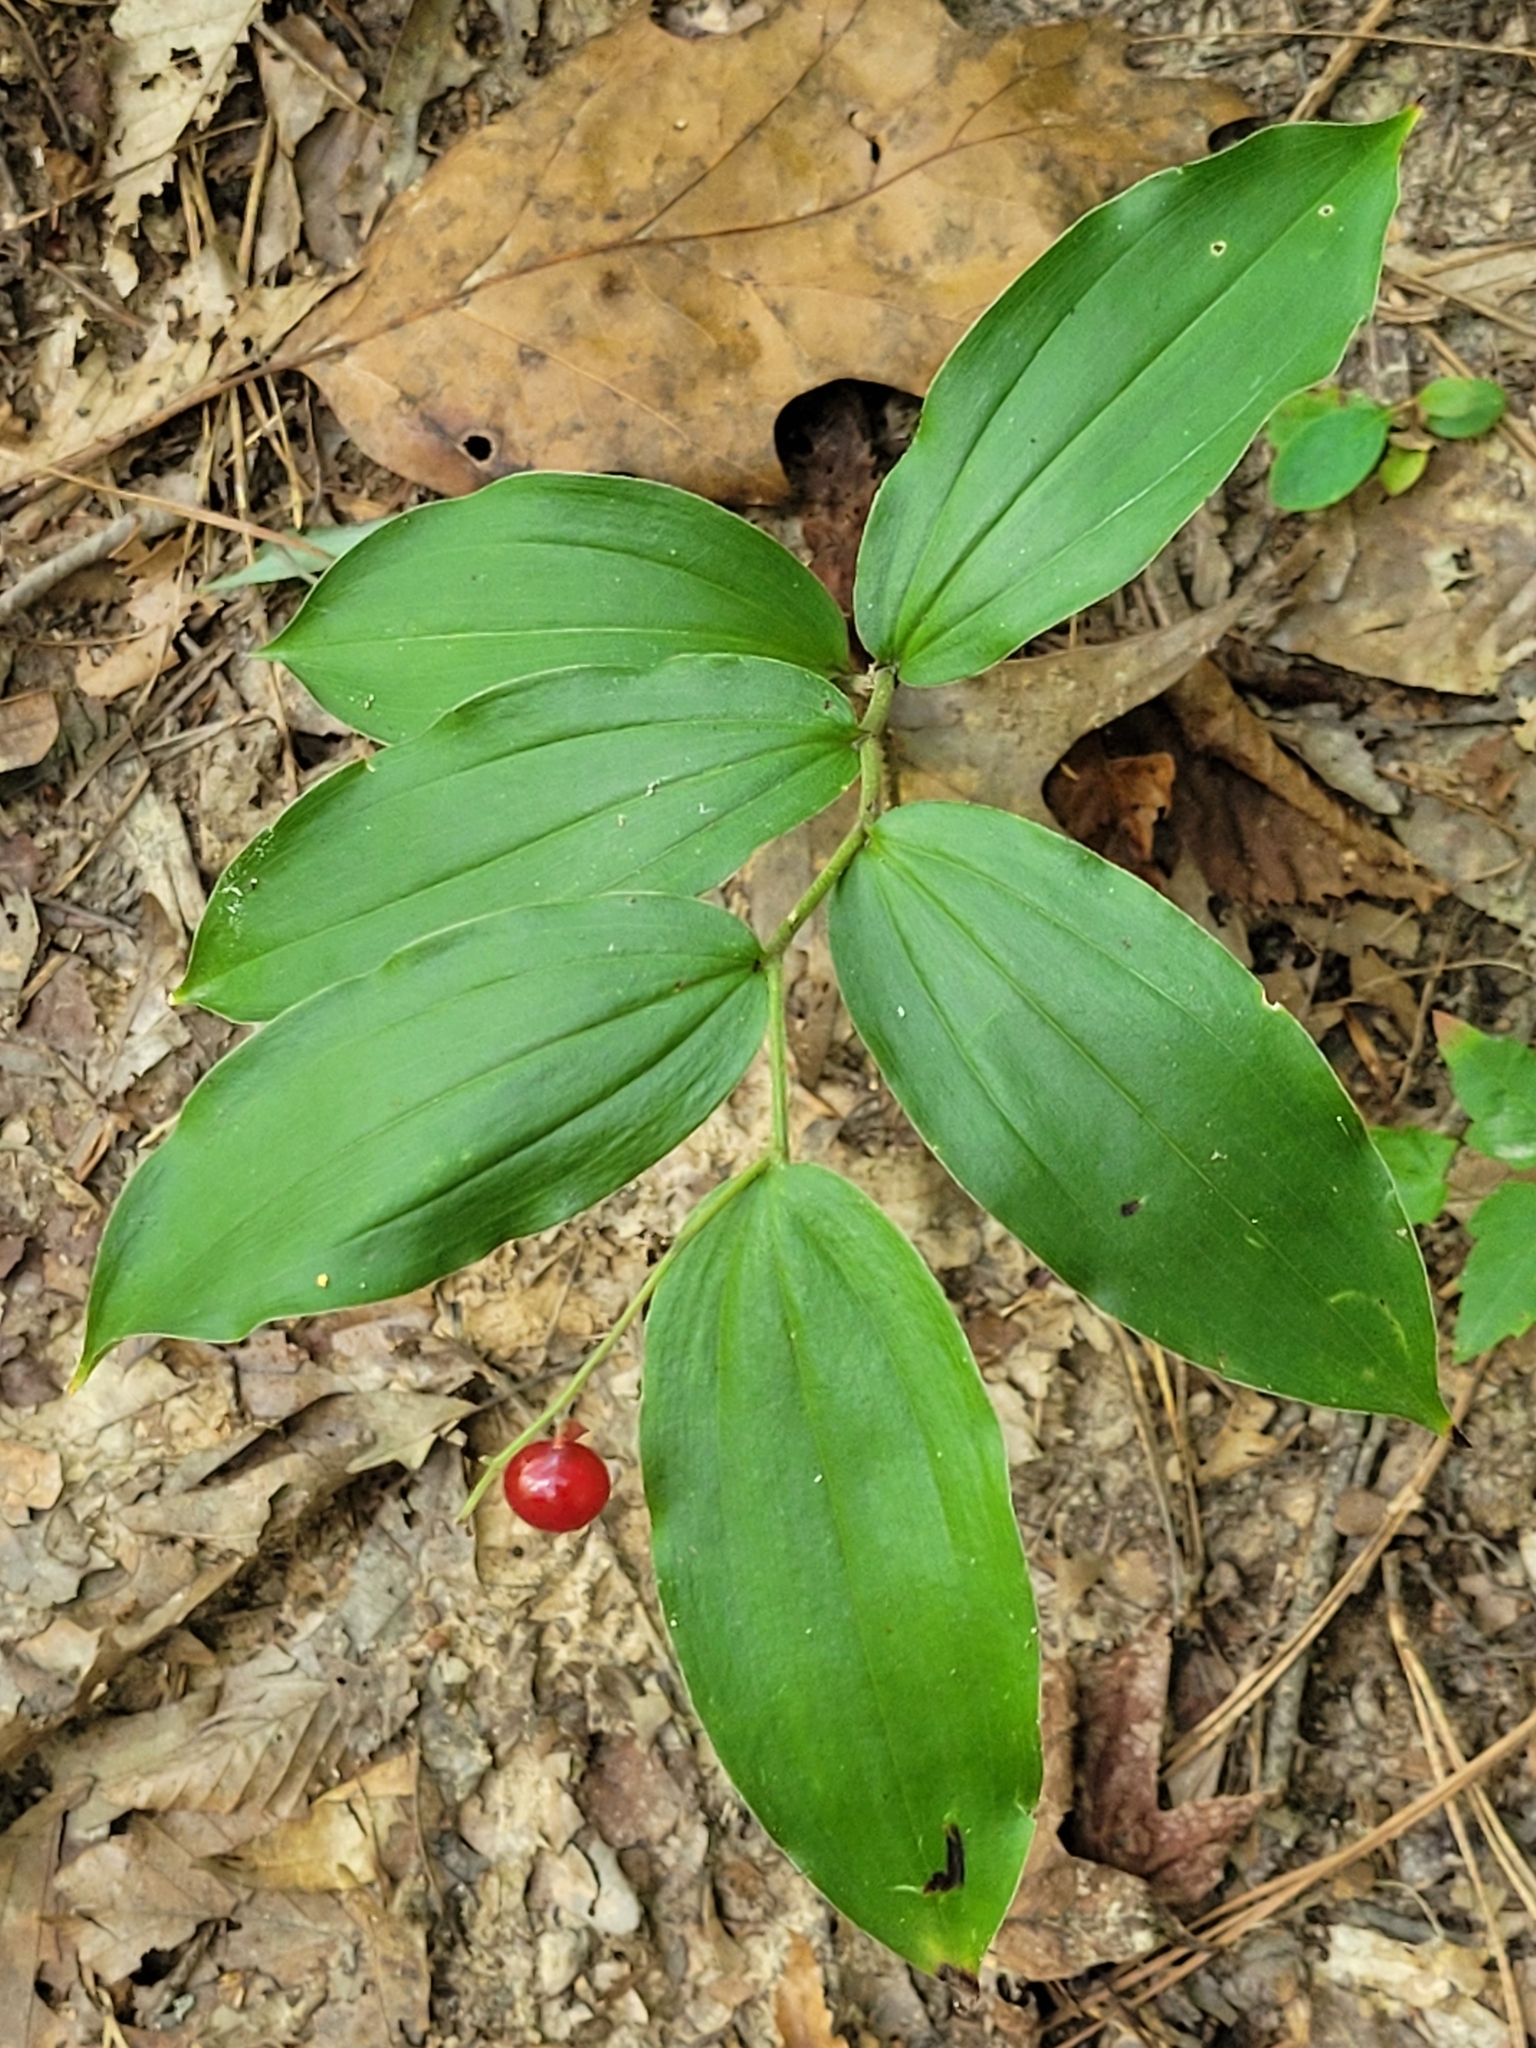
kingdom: Plantae
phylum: Tracheophyta
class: Liliopsida
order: Asparagales
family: Asparagaceae
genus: Maianthemum
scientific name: Maianthemum racemosum
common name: False spikenard
